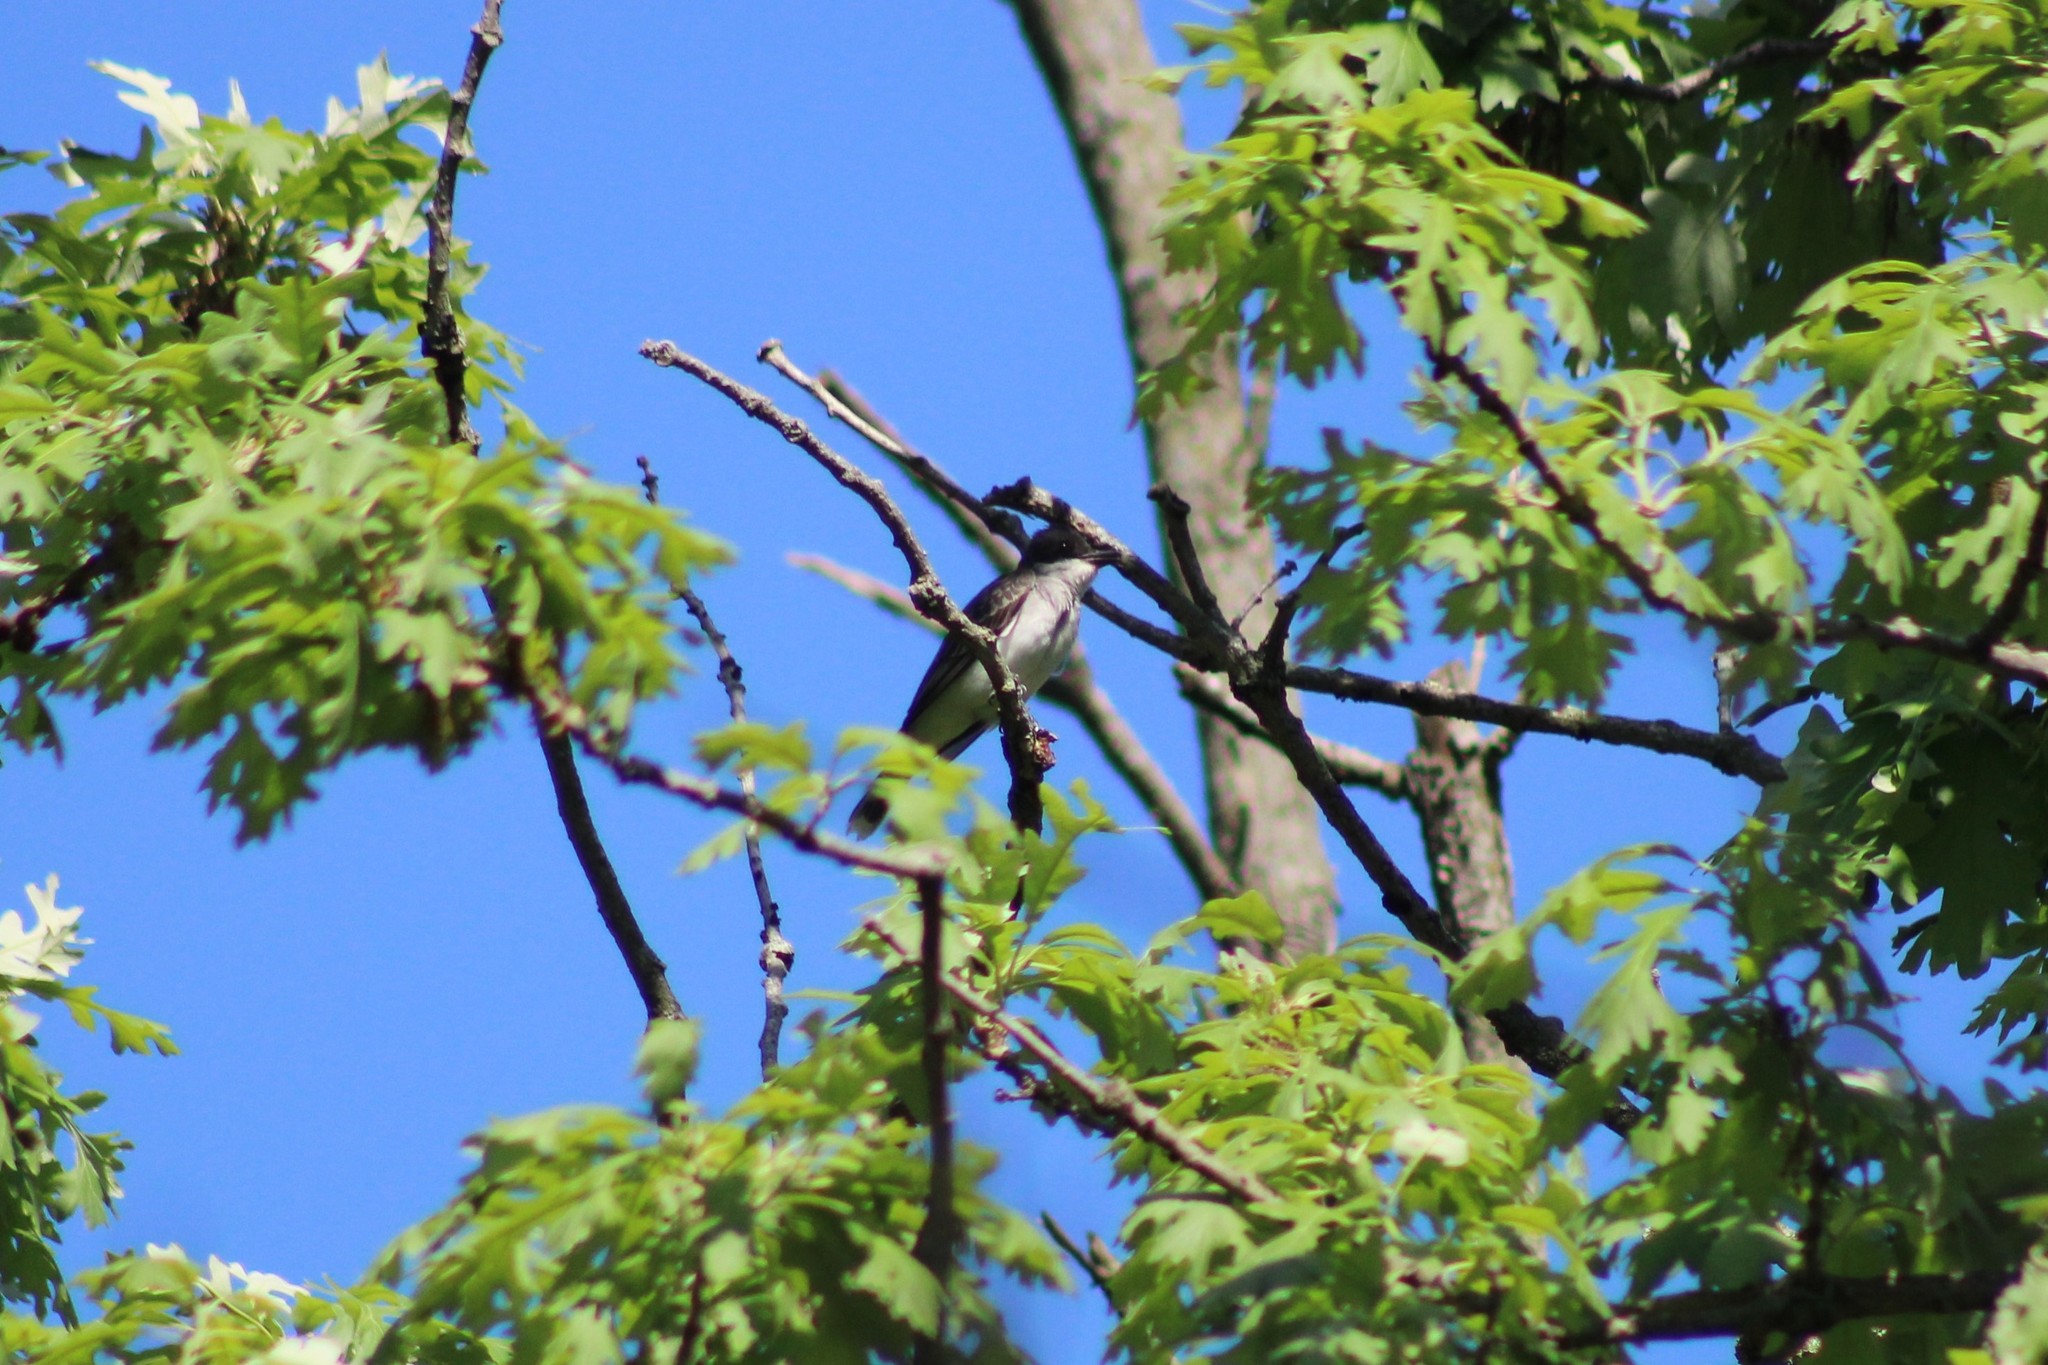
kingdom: Animalia
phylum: Chordata
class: Aves
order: Passeriformes
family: Tyrannidae
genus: Tyrannus
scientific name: Tyrannus tyrannus
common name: Eastern kingbird
